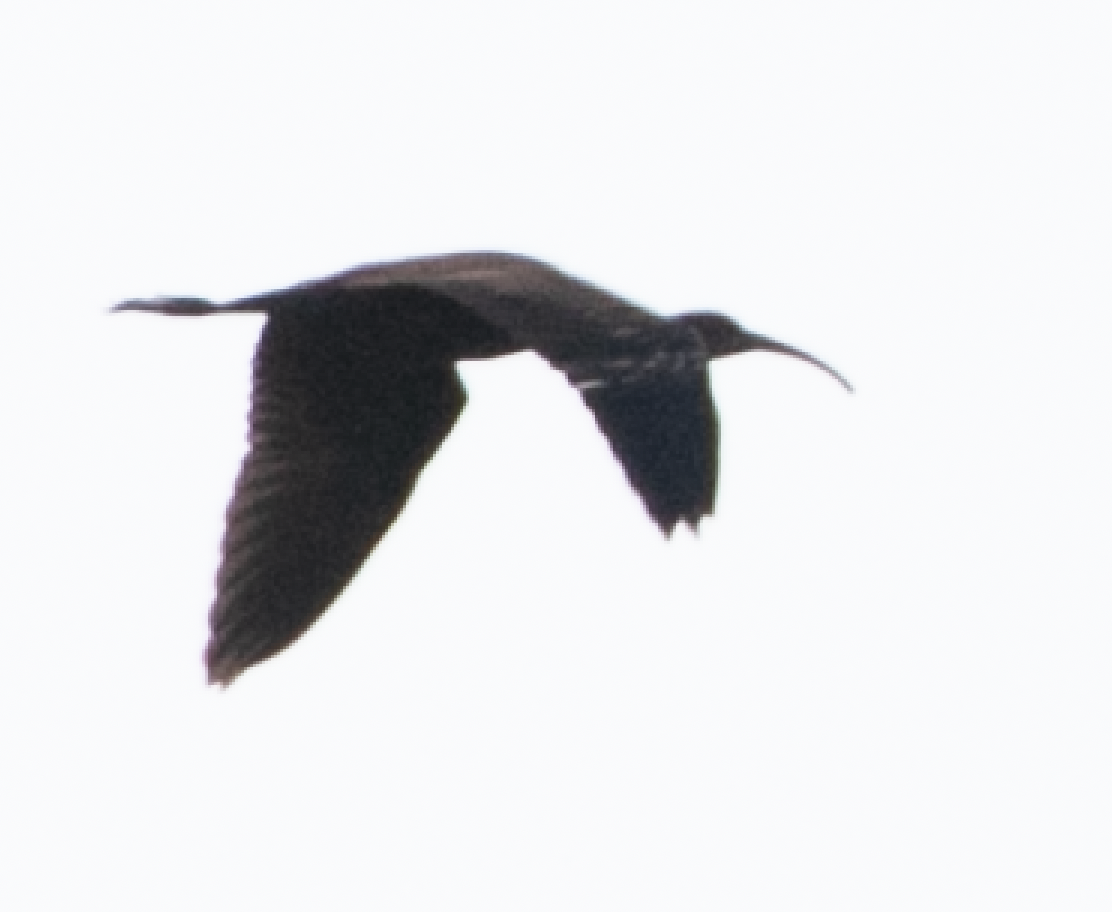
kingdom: Animalia
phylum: Chordata
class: Aves
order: Pelecaniformes
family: Threskiornithidae
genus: Plegadis
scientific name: Plegadis falcinellus
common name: Glossy ibis
